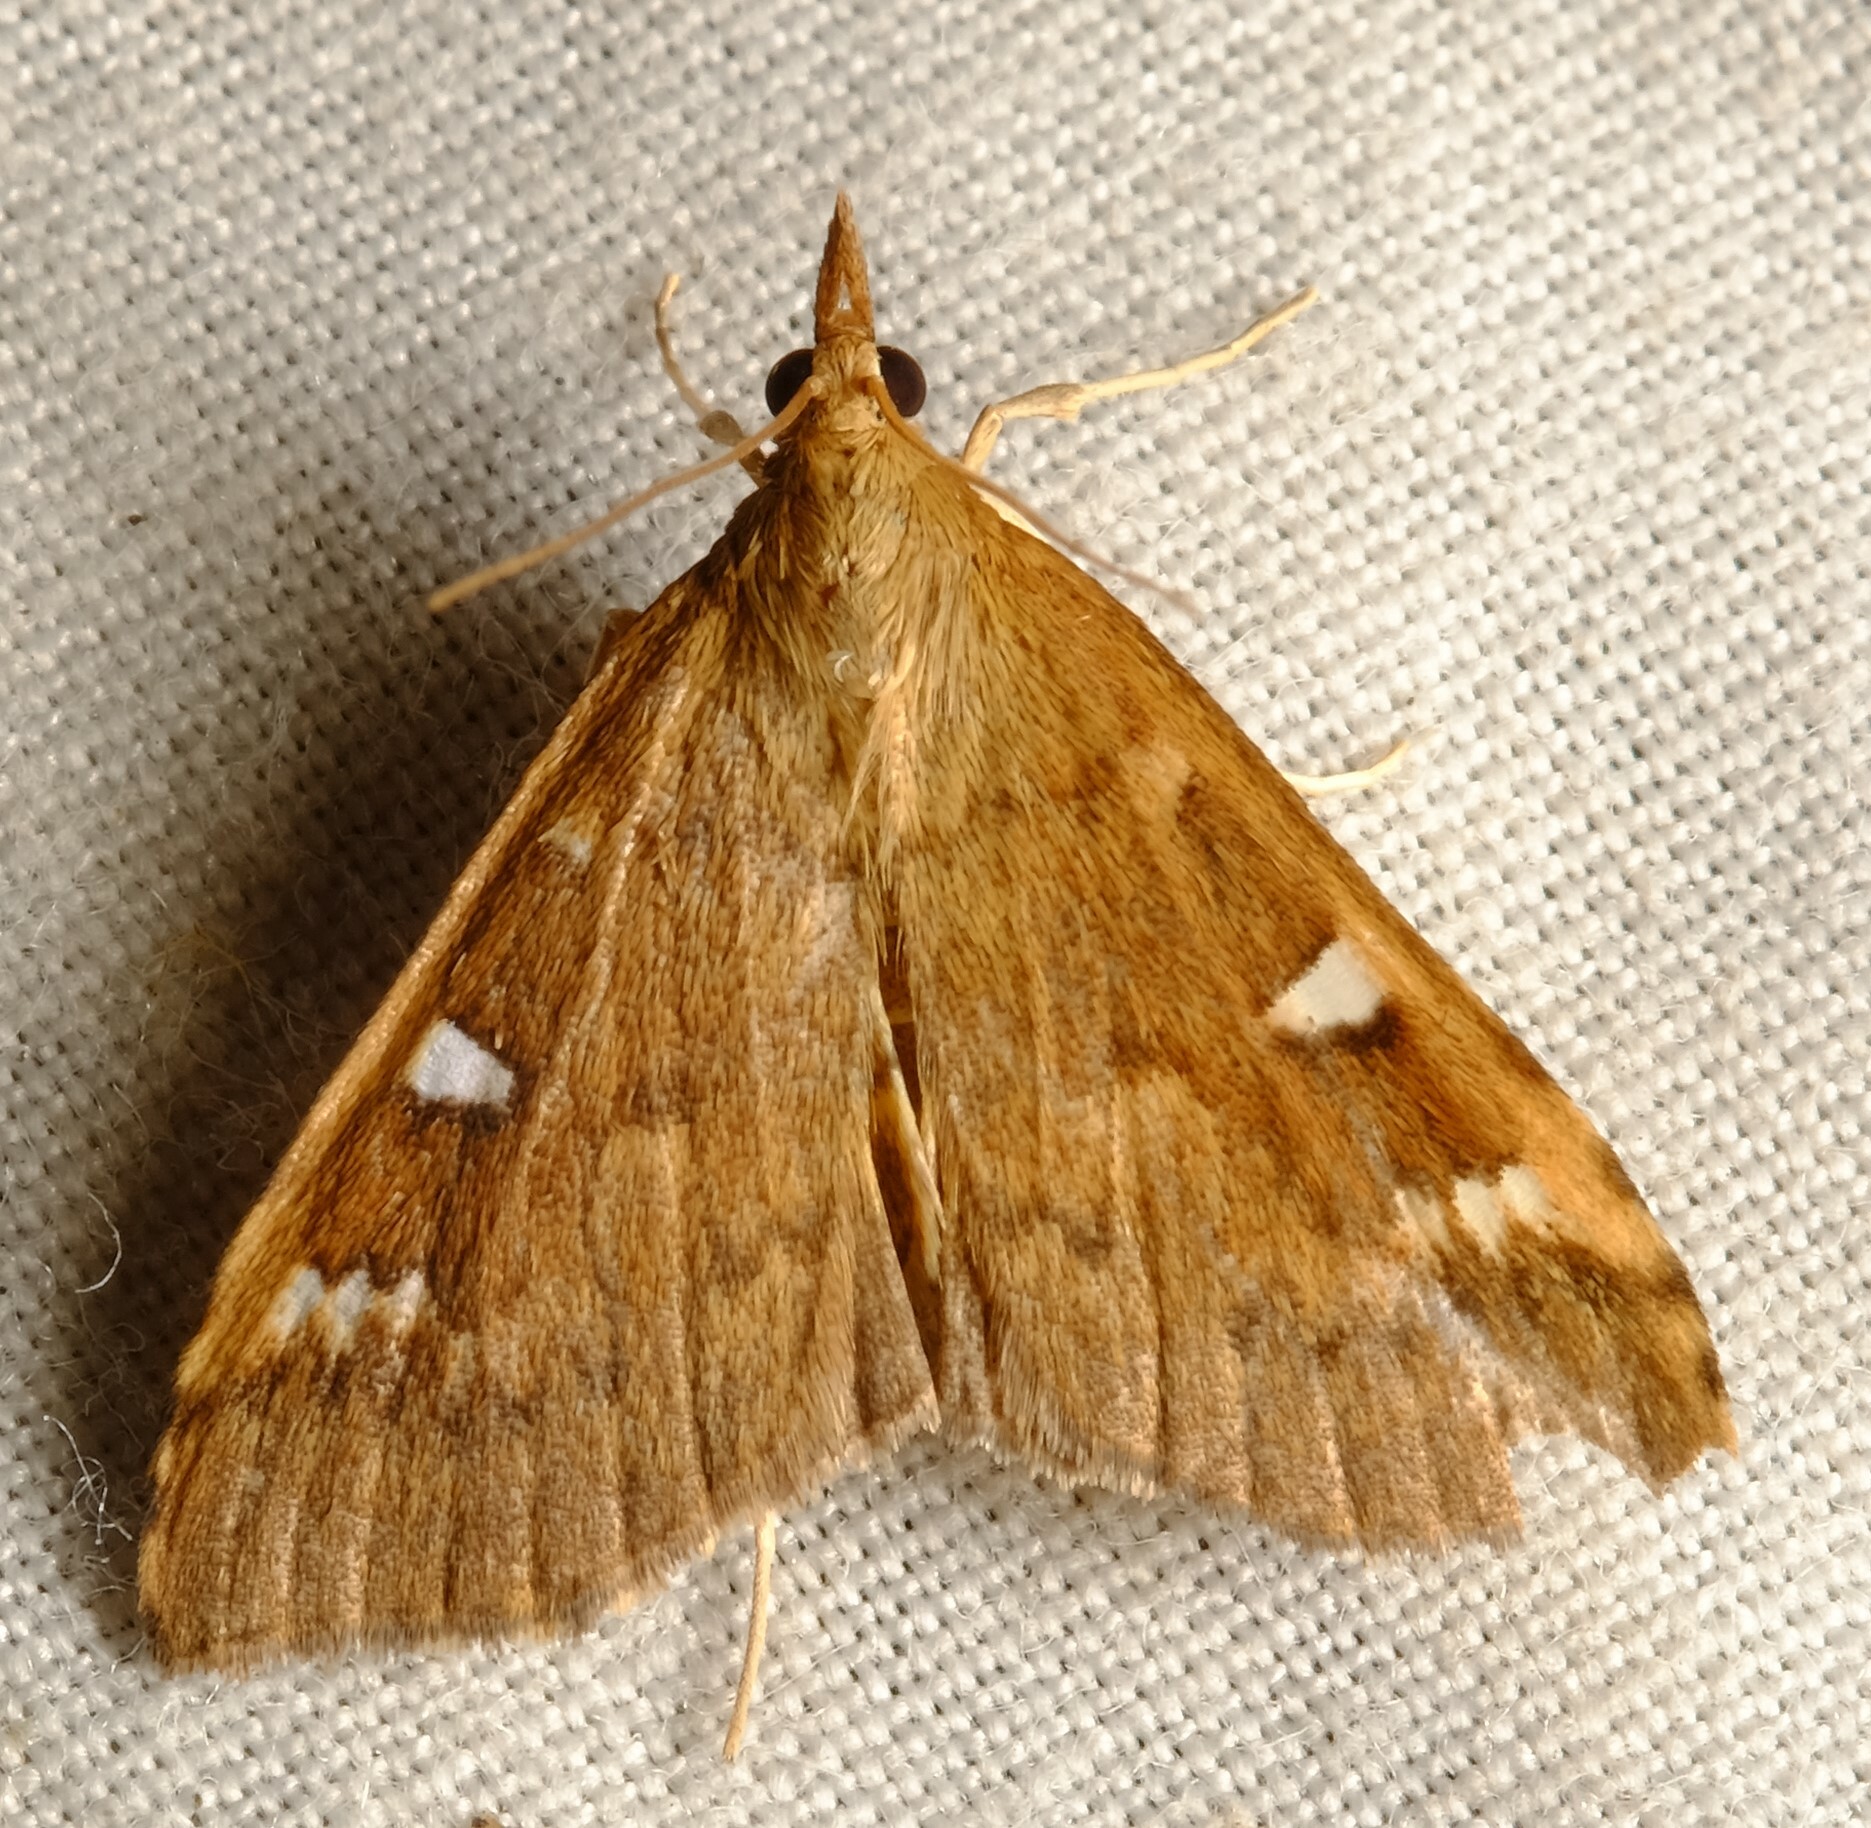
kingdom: Animalia
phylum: Arthropoda
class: Insecta
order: Lepidoptera
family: Crambidae
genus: Udea
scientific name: Udea hyalistis
